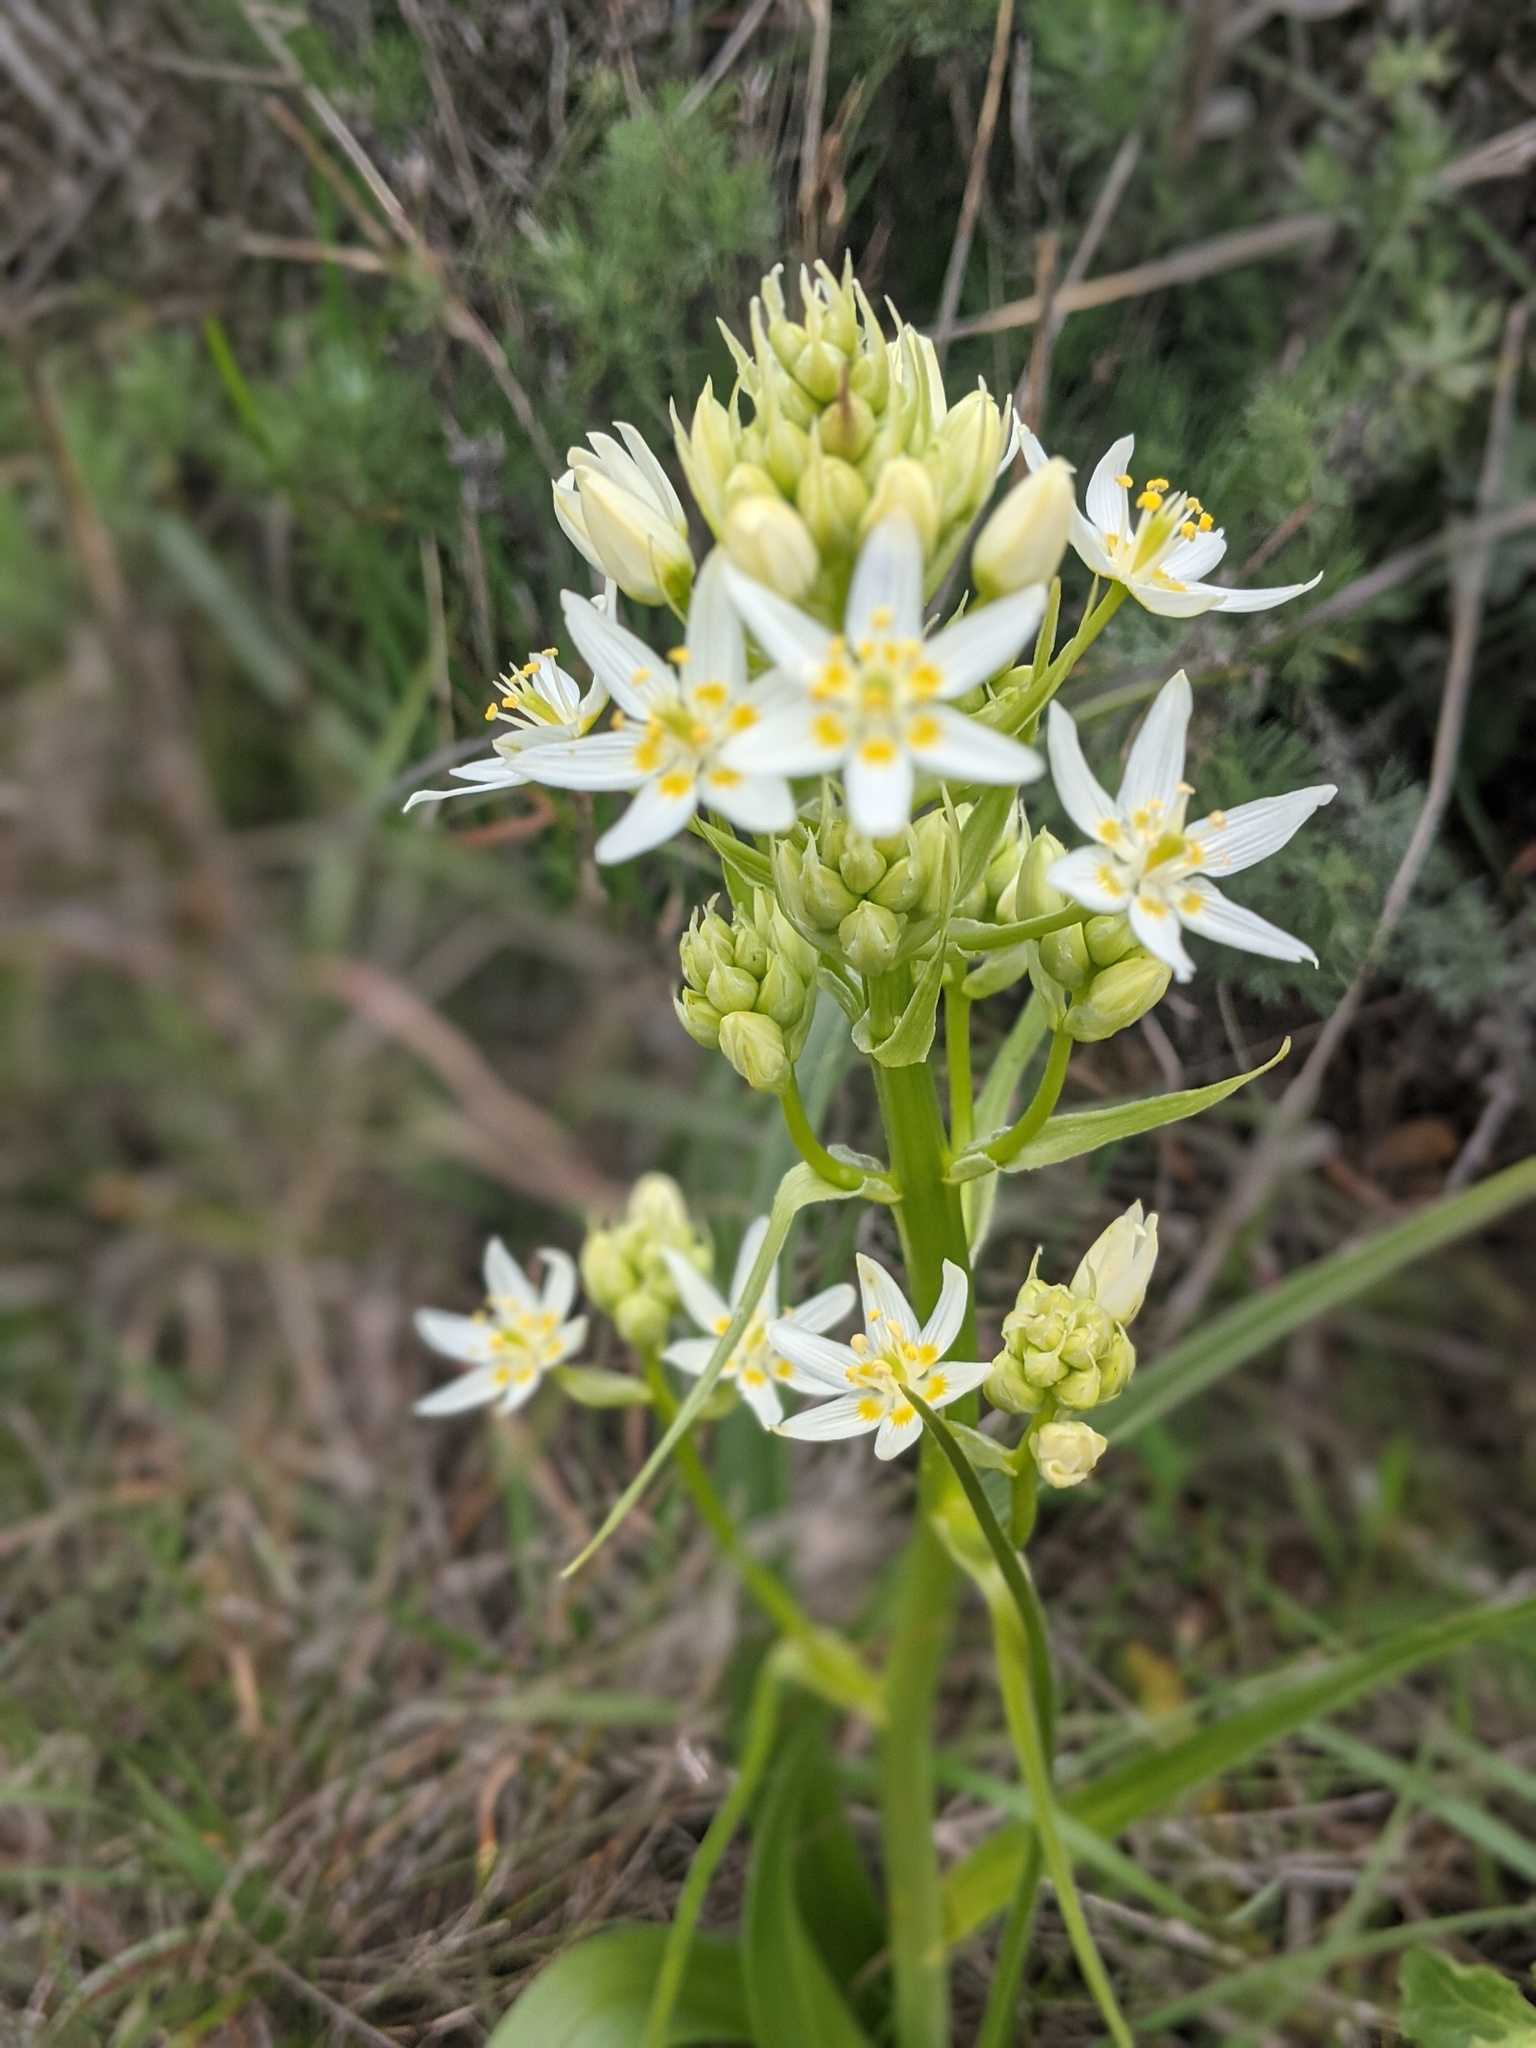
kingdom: Plantae
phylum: Tracheophyta
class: Liliopsida
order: Liliales
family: Melanthiaceae
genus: Toxicoscordion
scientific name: Toxicoscordion fremontii
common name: Fremont's death camas
